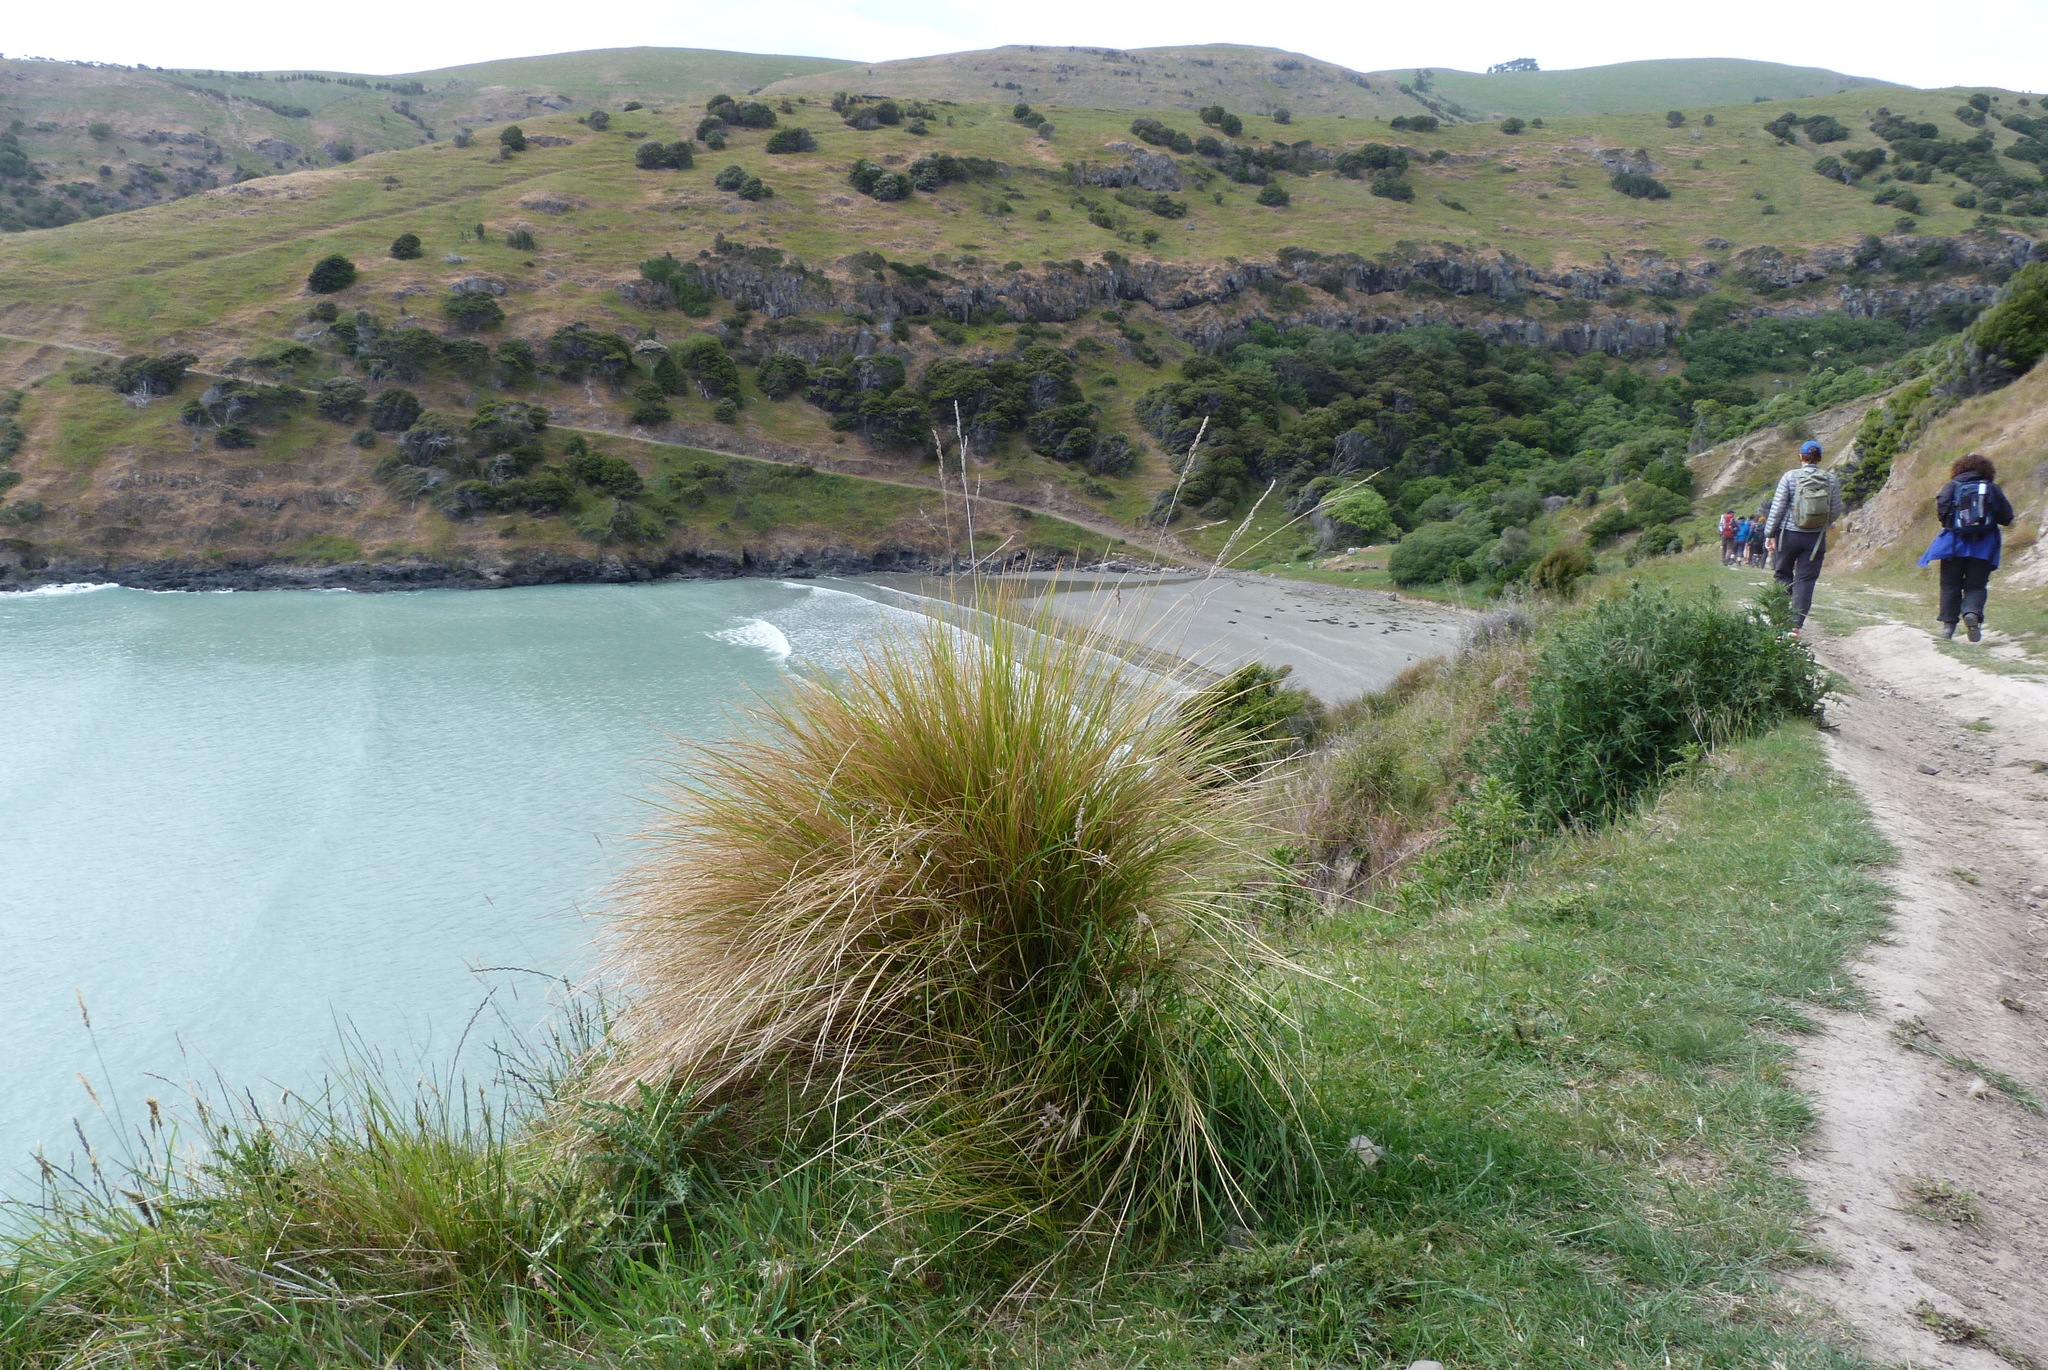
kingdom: Plantae
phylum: Tracheophyta
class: Liliopsida
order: Poales
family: Poaceae
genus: Poa
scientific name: Poa cita
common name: Silver tussock
